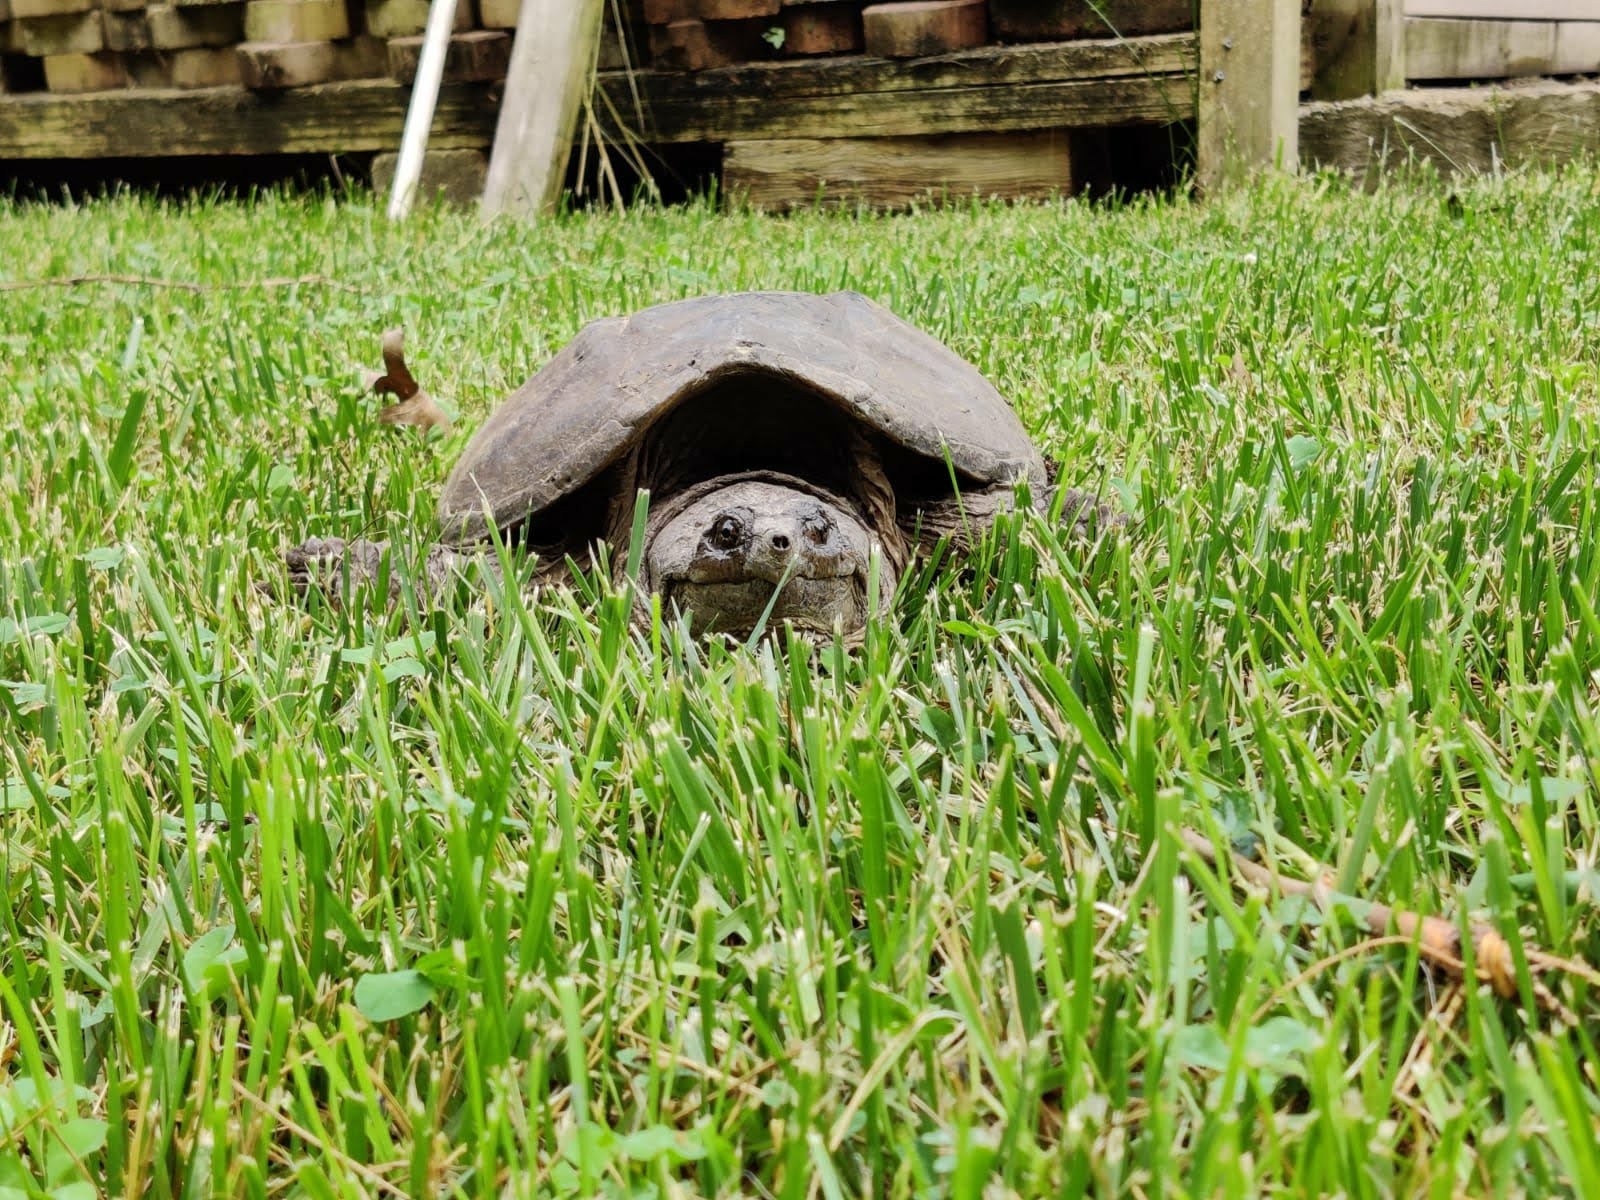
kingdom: Animalia
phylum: Chordata
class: Testudines
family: Chelydridae
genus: Chelydra
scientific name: Chelydra serpentina
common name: Common snapping turtle
